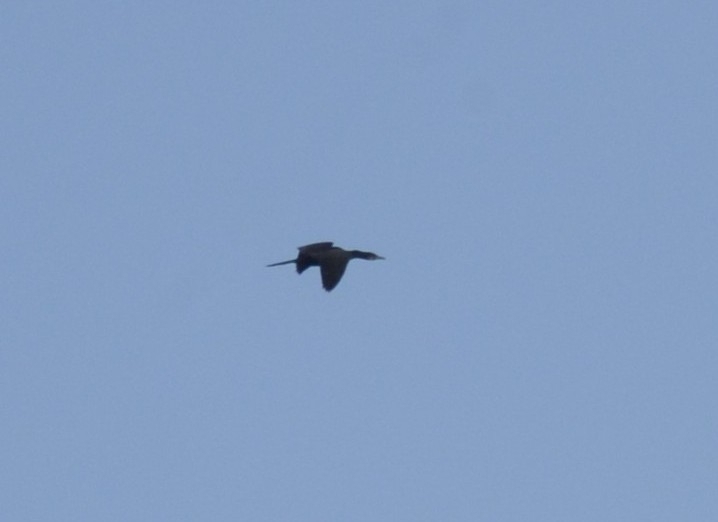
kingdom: Animalia
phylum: Chordata
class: Aves
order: Suliformes
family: Phalacrocoracidae
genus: Microcarbo
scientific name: Microcarbo niger
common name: Little cormorant
